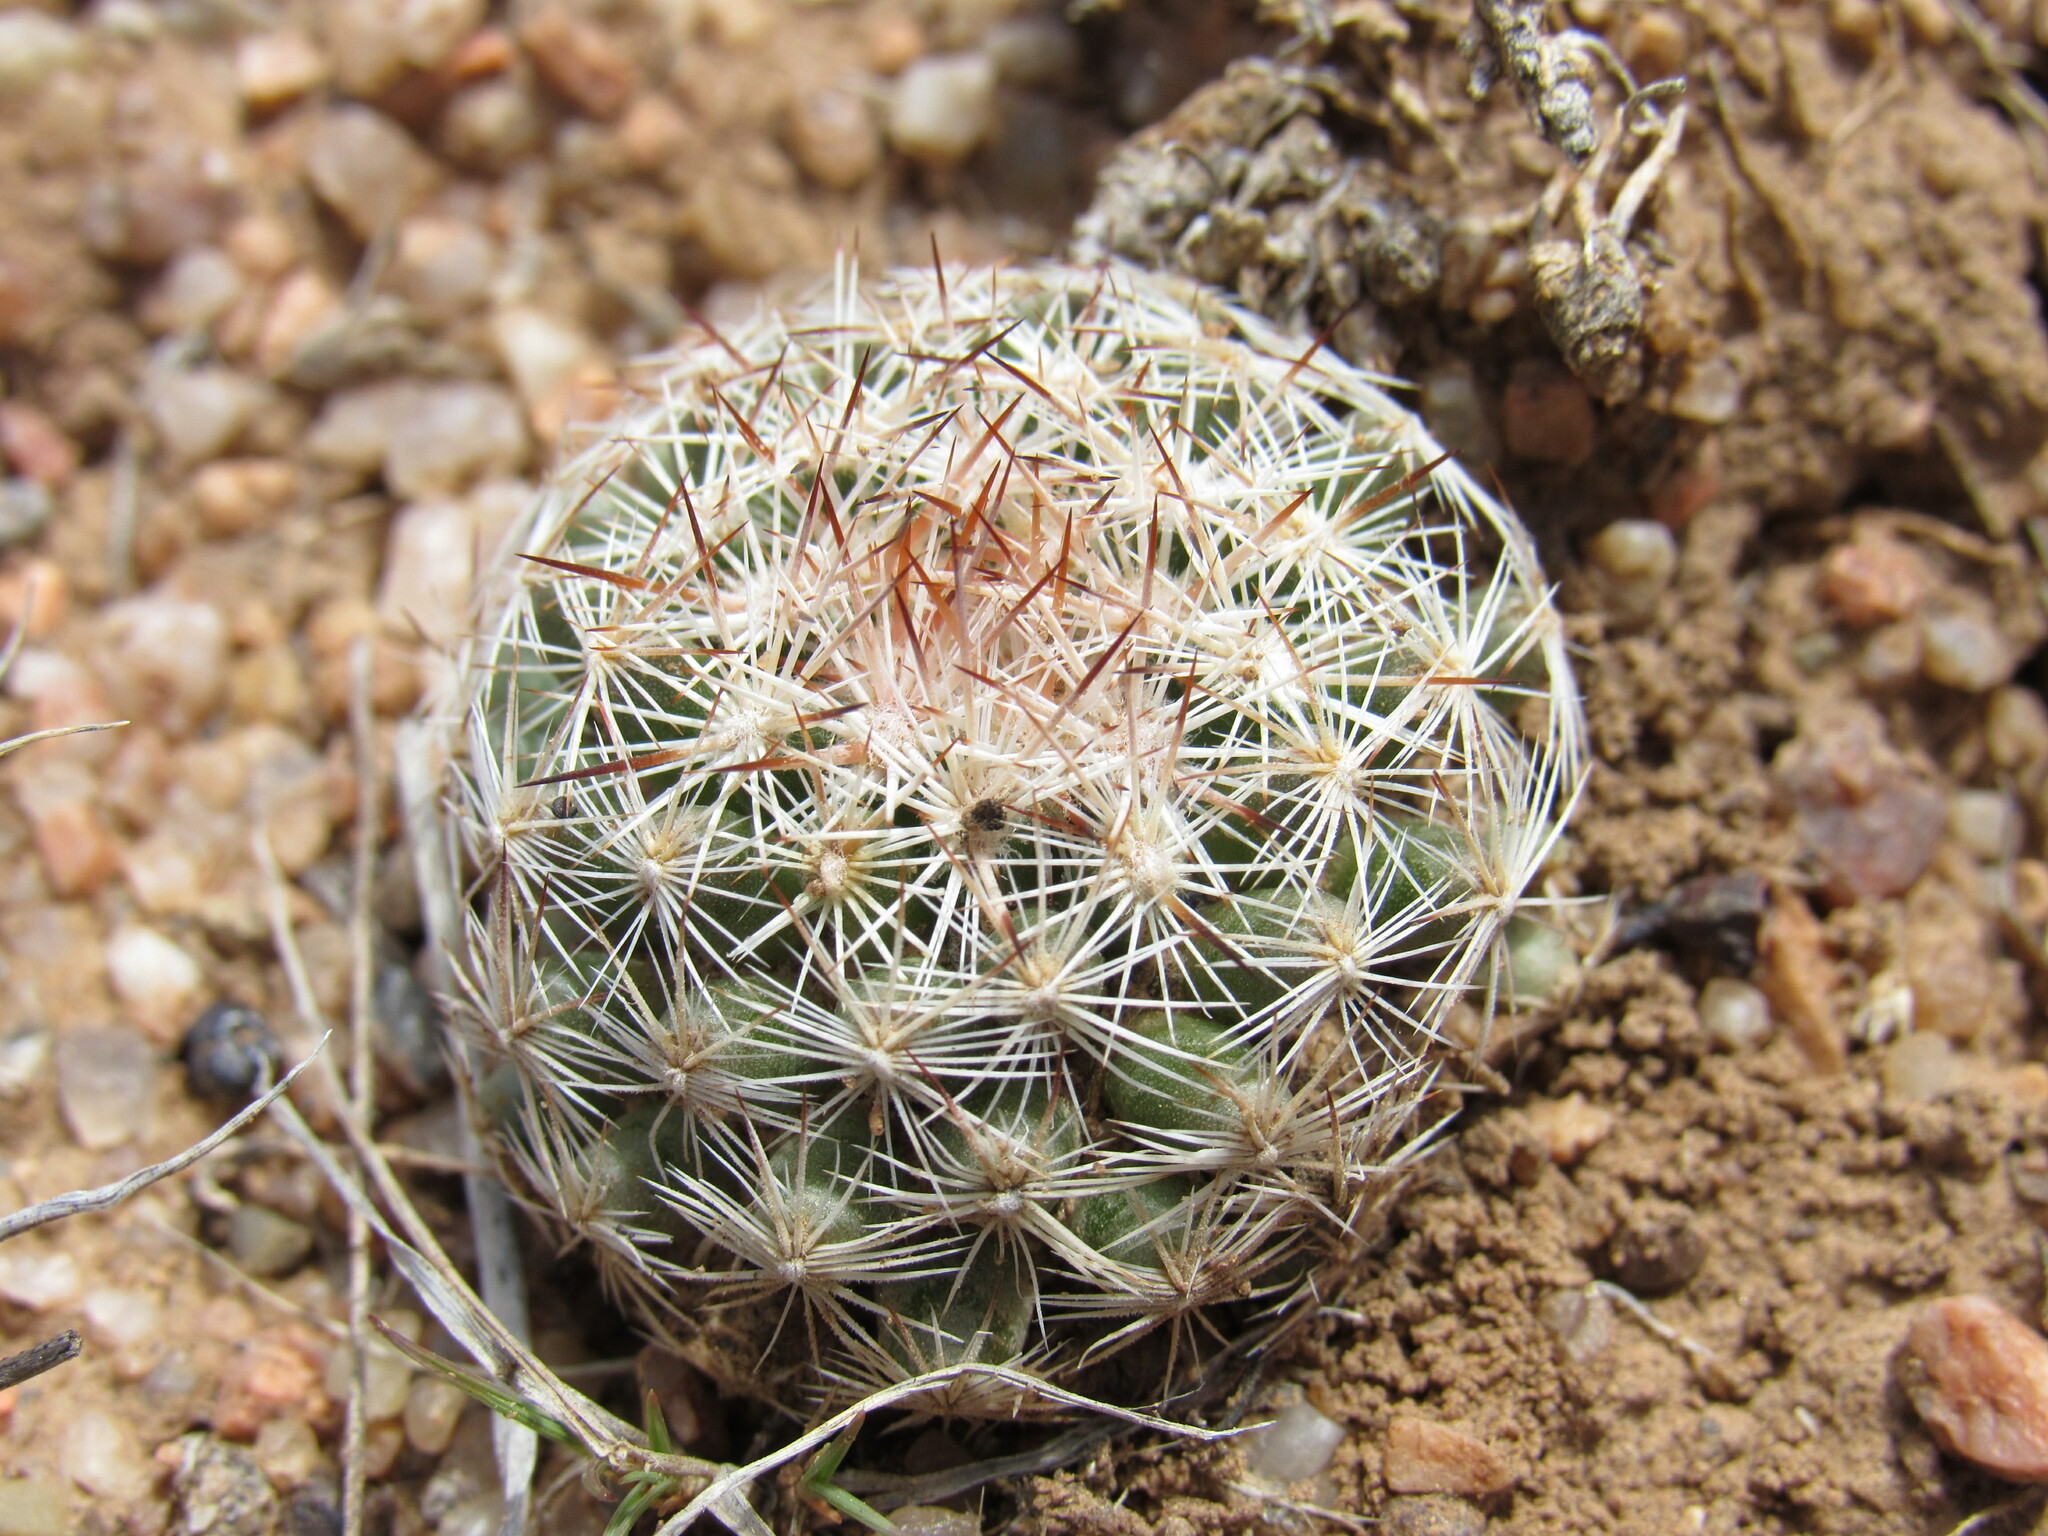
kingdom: Plantae
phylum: Tracheophyta
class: Magnoliopsida
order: Caryophyllales
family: Cactaceae
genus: Pelecyphora
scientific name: Pelecyphora vivipara
